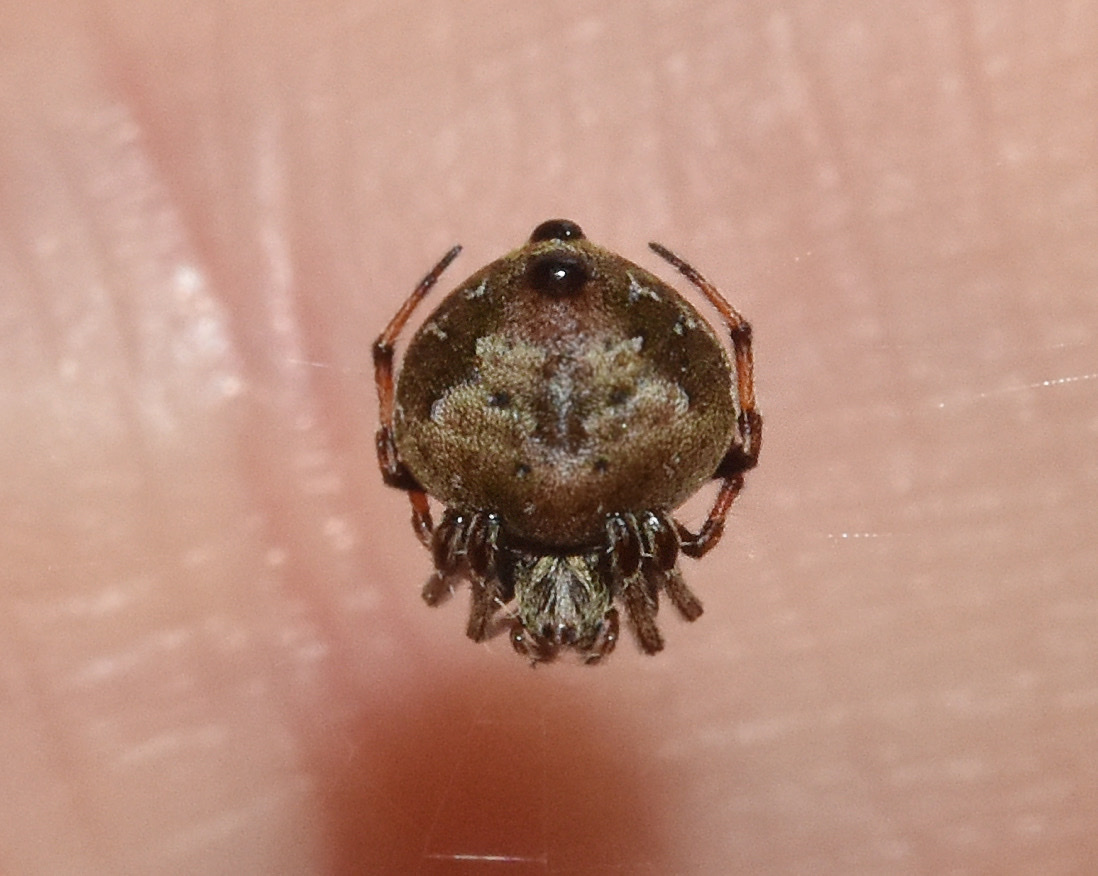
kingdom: Animalia
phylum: Arthropoda
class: Arachnida
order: Araneae
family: Araneidae
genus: Eriovixia
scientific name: Eriovixia excelsa
